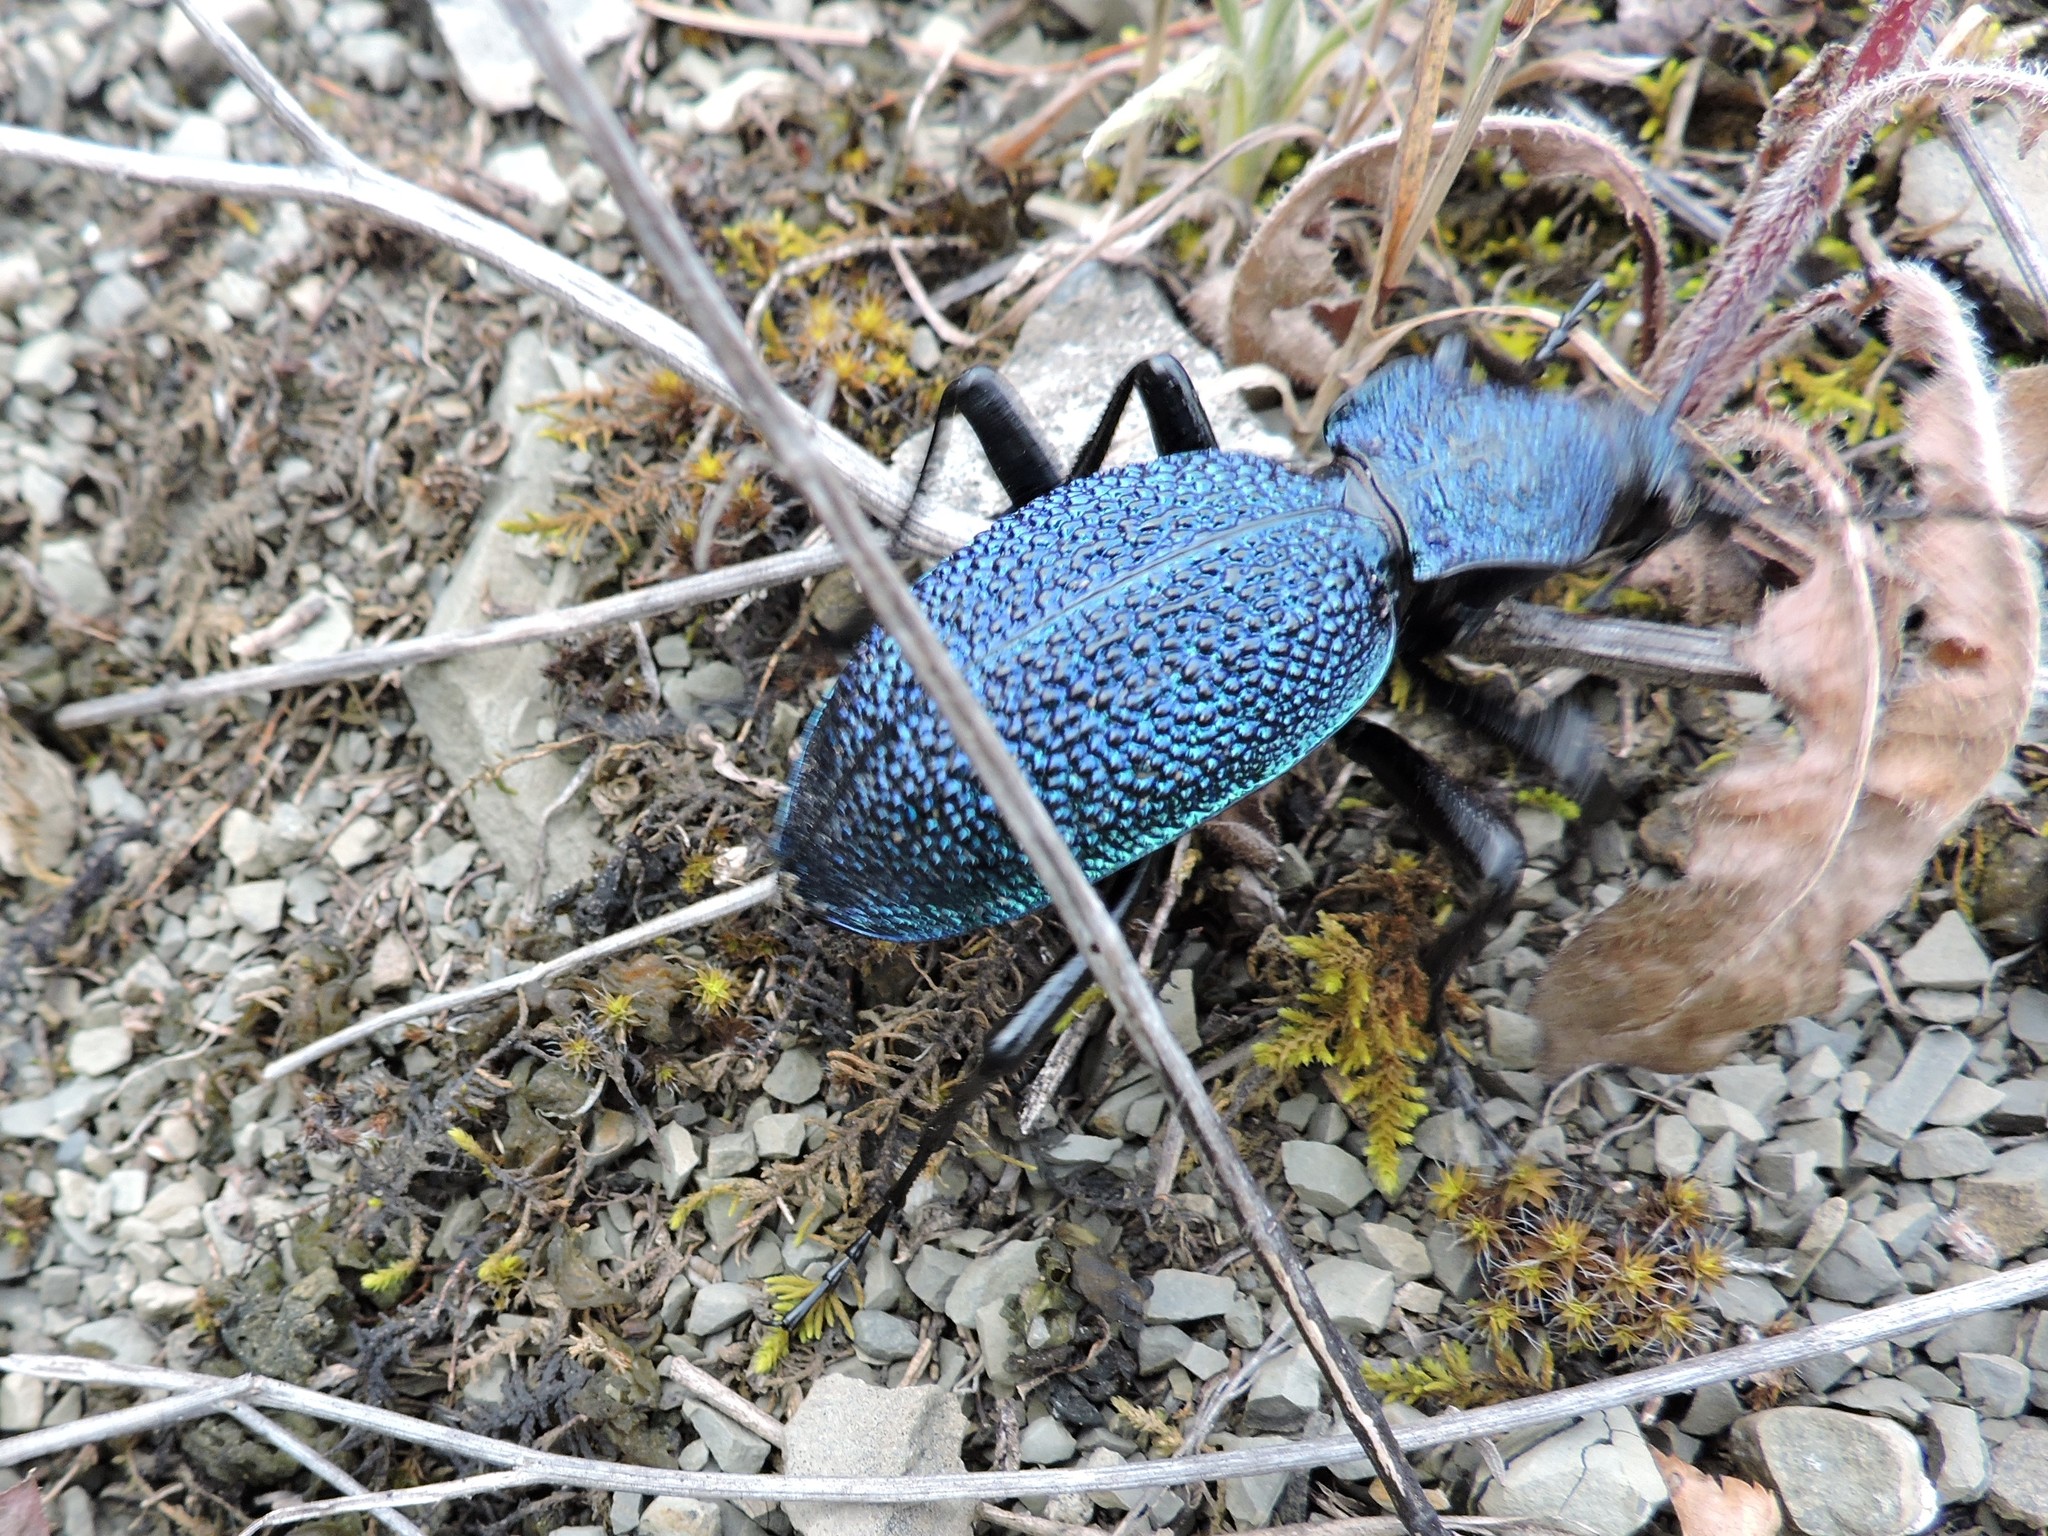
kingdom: Animalia
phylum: Arthropoda
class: Insecta
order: Coleoptera
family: Carabidae
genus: Carabus
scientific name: Carabus scabrosus
